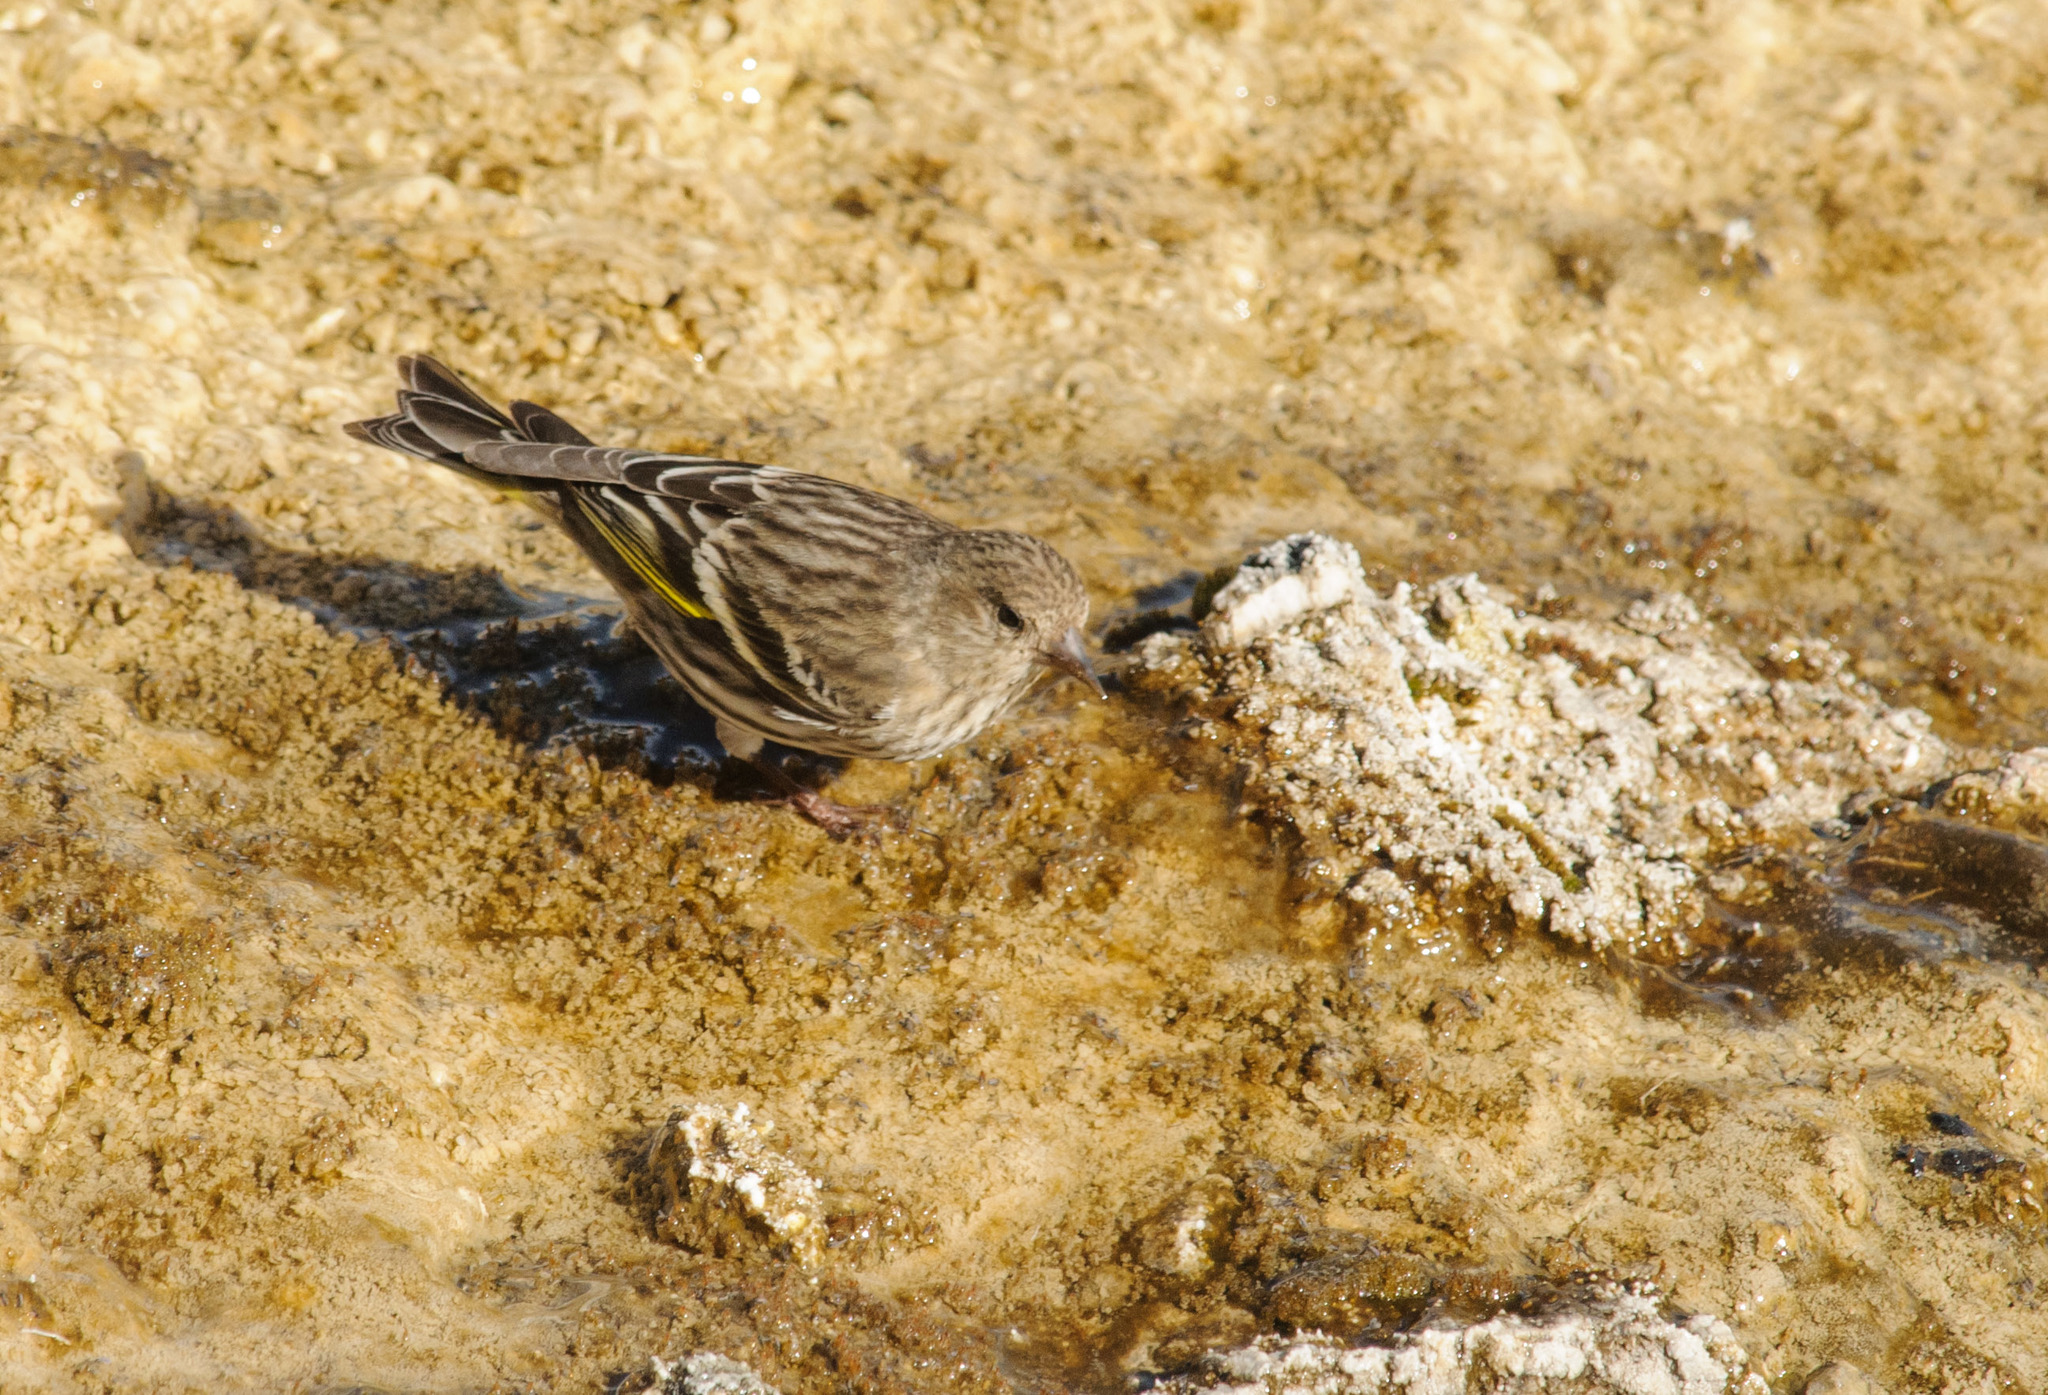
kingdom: Animalia
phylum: Chordata
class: Aves
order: Passeriformes
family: Fringillidae
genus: Spinus
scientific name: Spinus pinus
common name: Pine siskin
